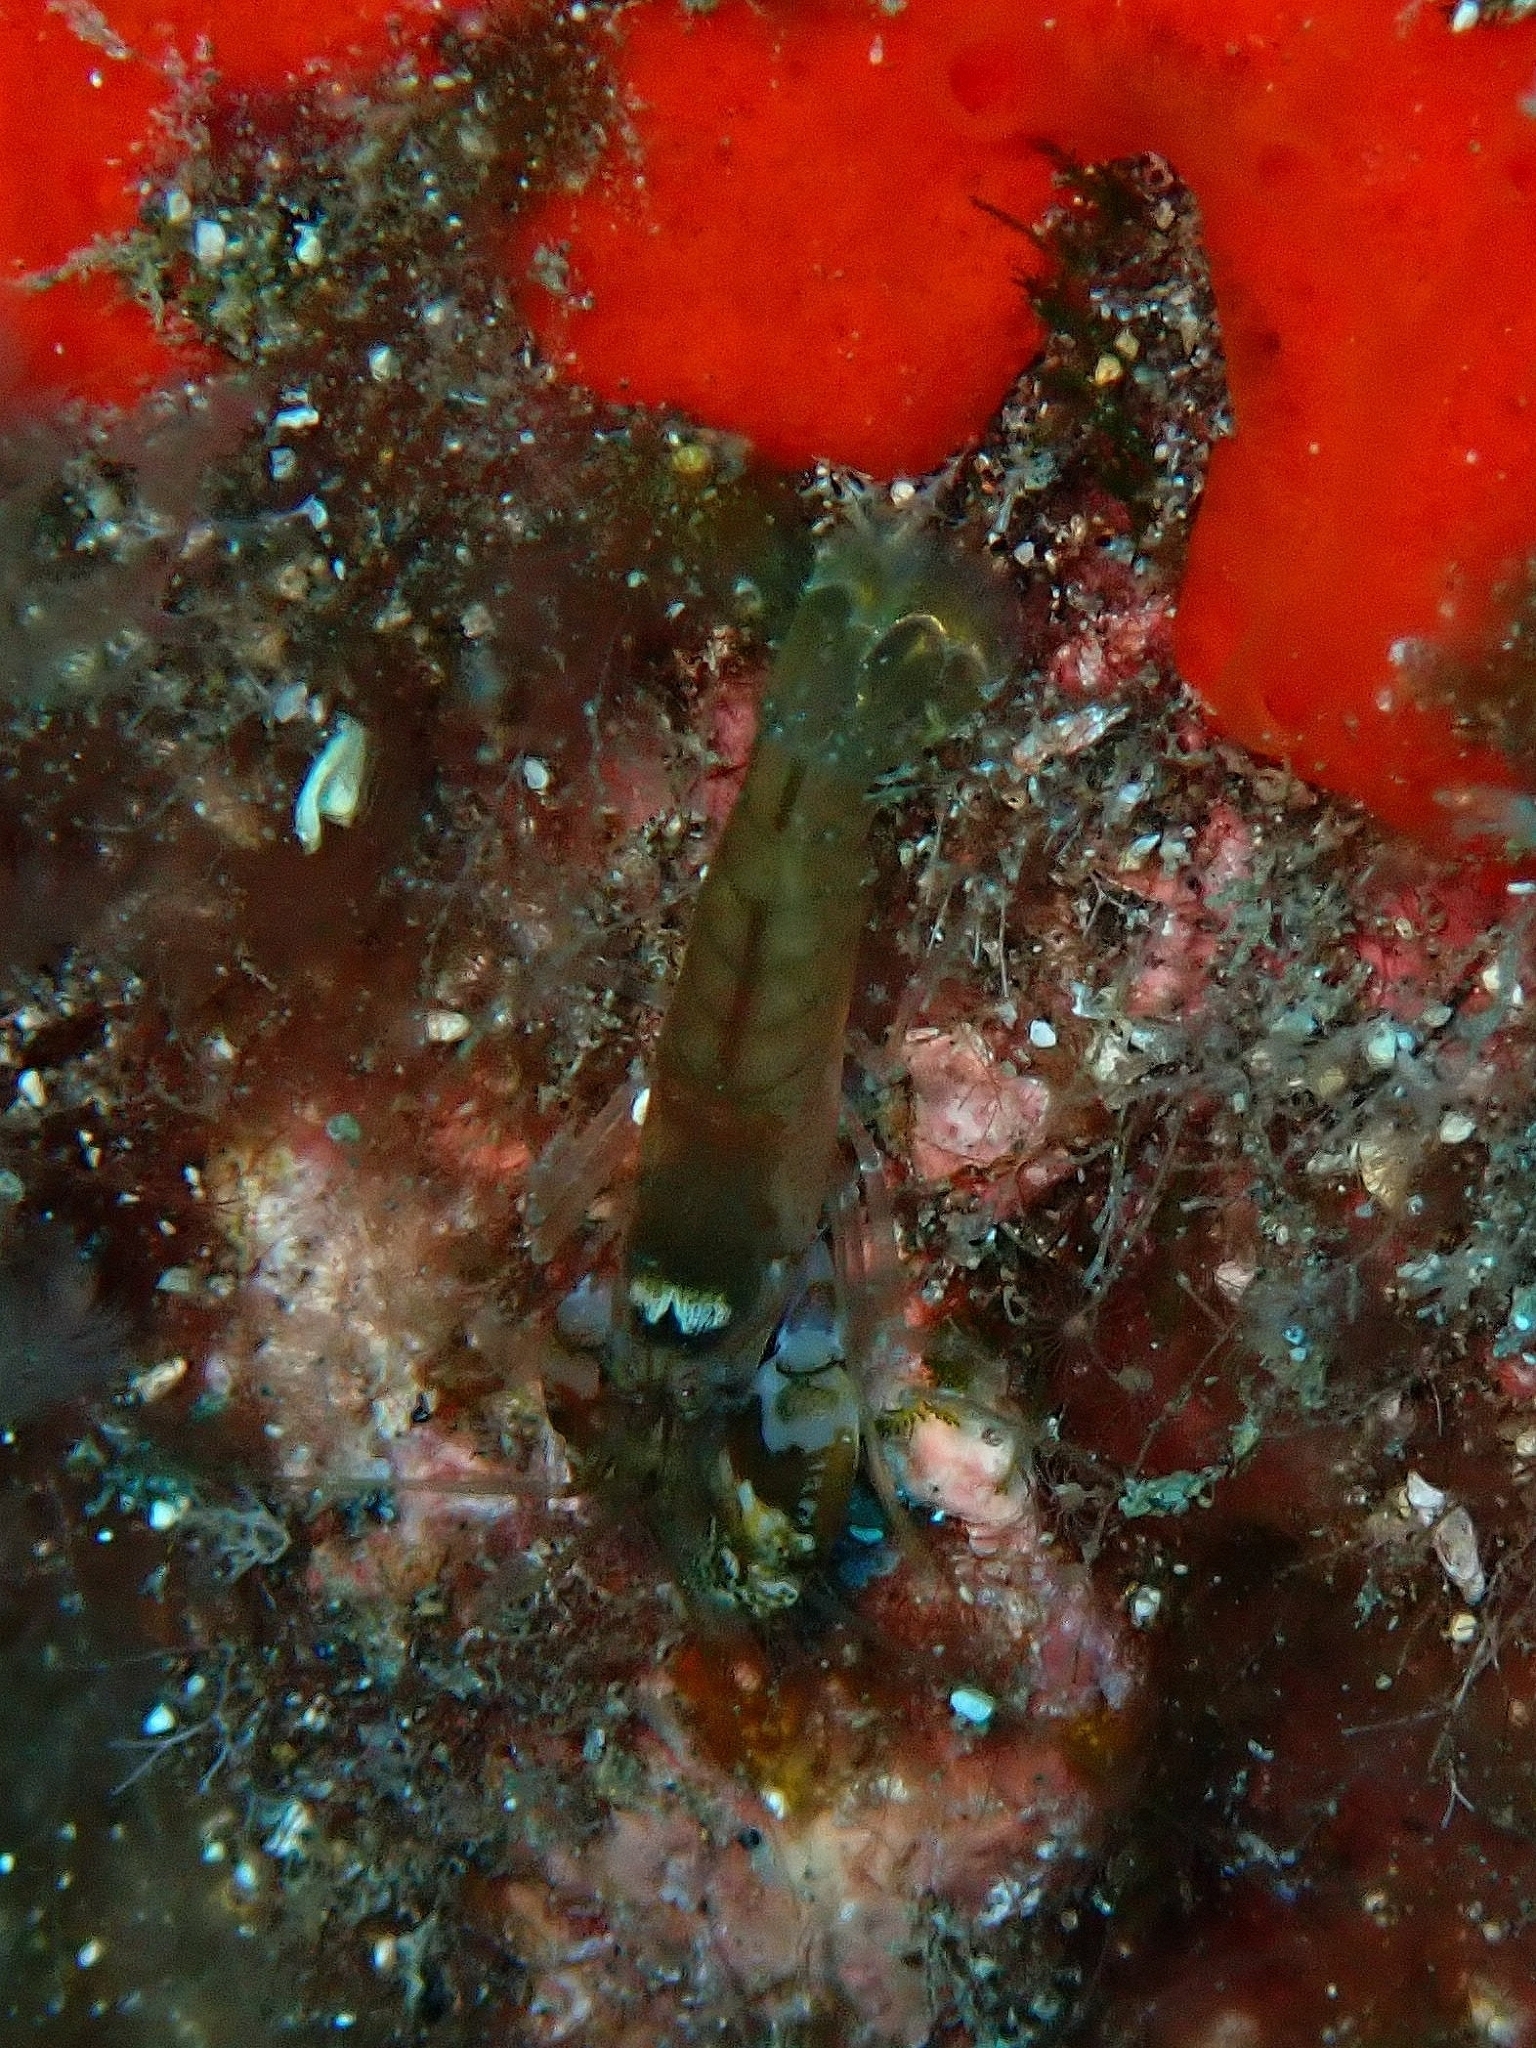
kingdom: Animalia
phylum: Arthropoda
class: Malacostraca
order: Decapoda
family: Alpheidae
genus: Alpheus
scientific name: Alpheus dentipes
